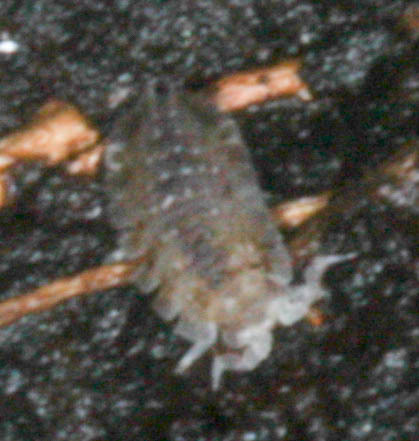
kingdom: Animalia
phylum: Arthropoda
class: Malacostraca
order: Isopoda
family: Detonidae
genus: Armadilloniscus
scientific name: Armadilloniscus coronacapitalis
